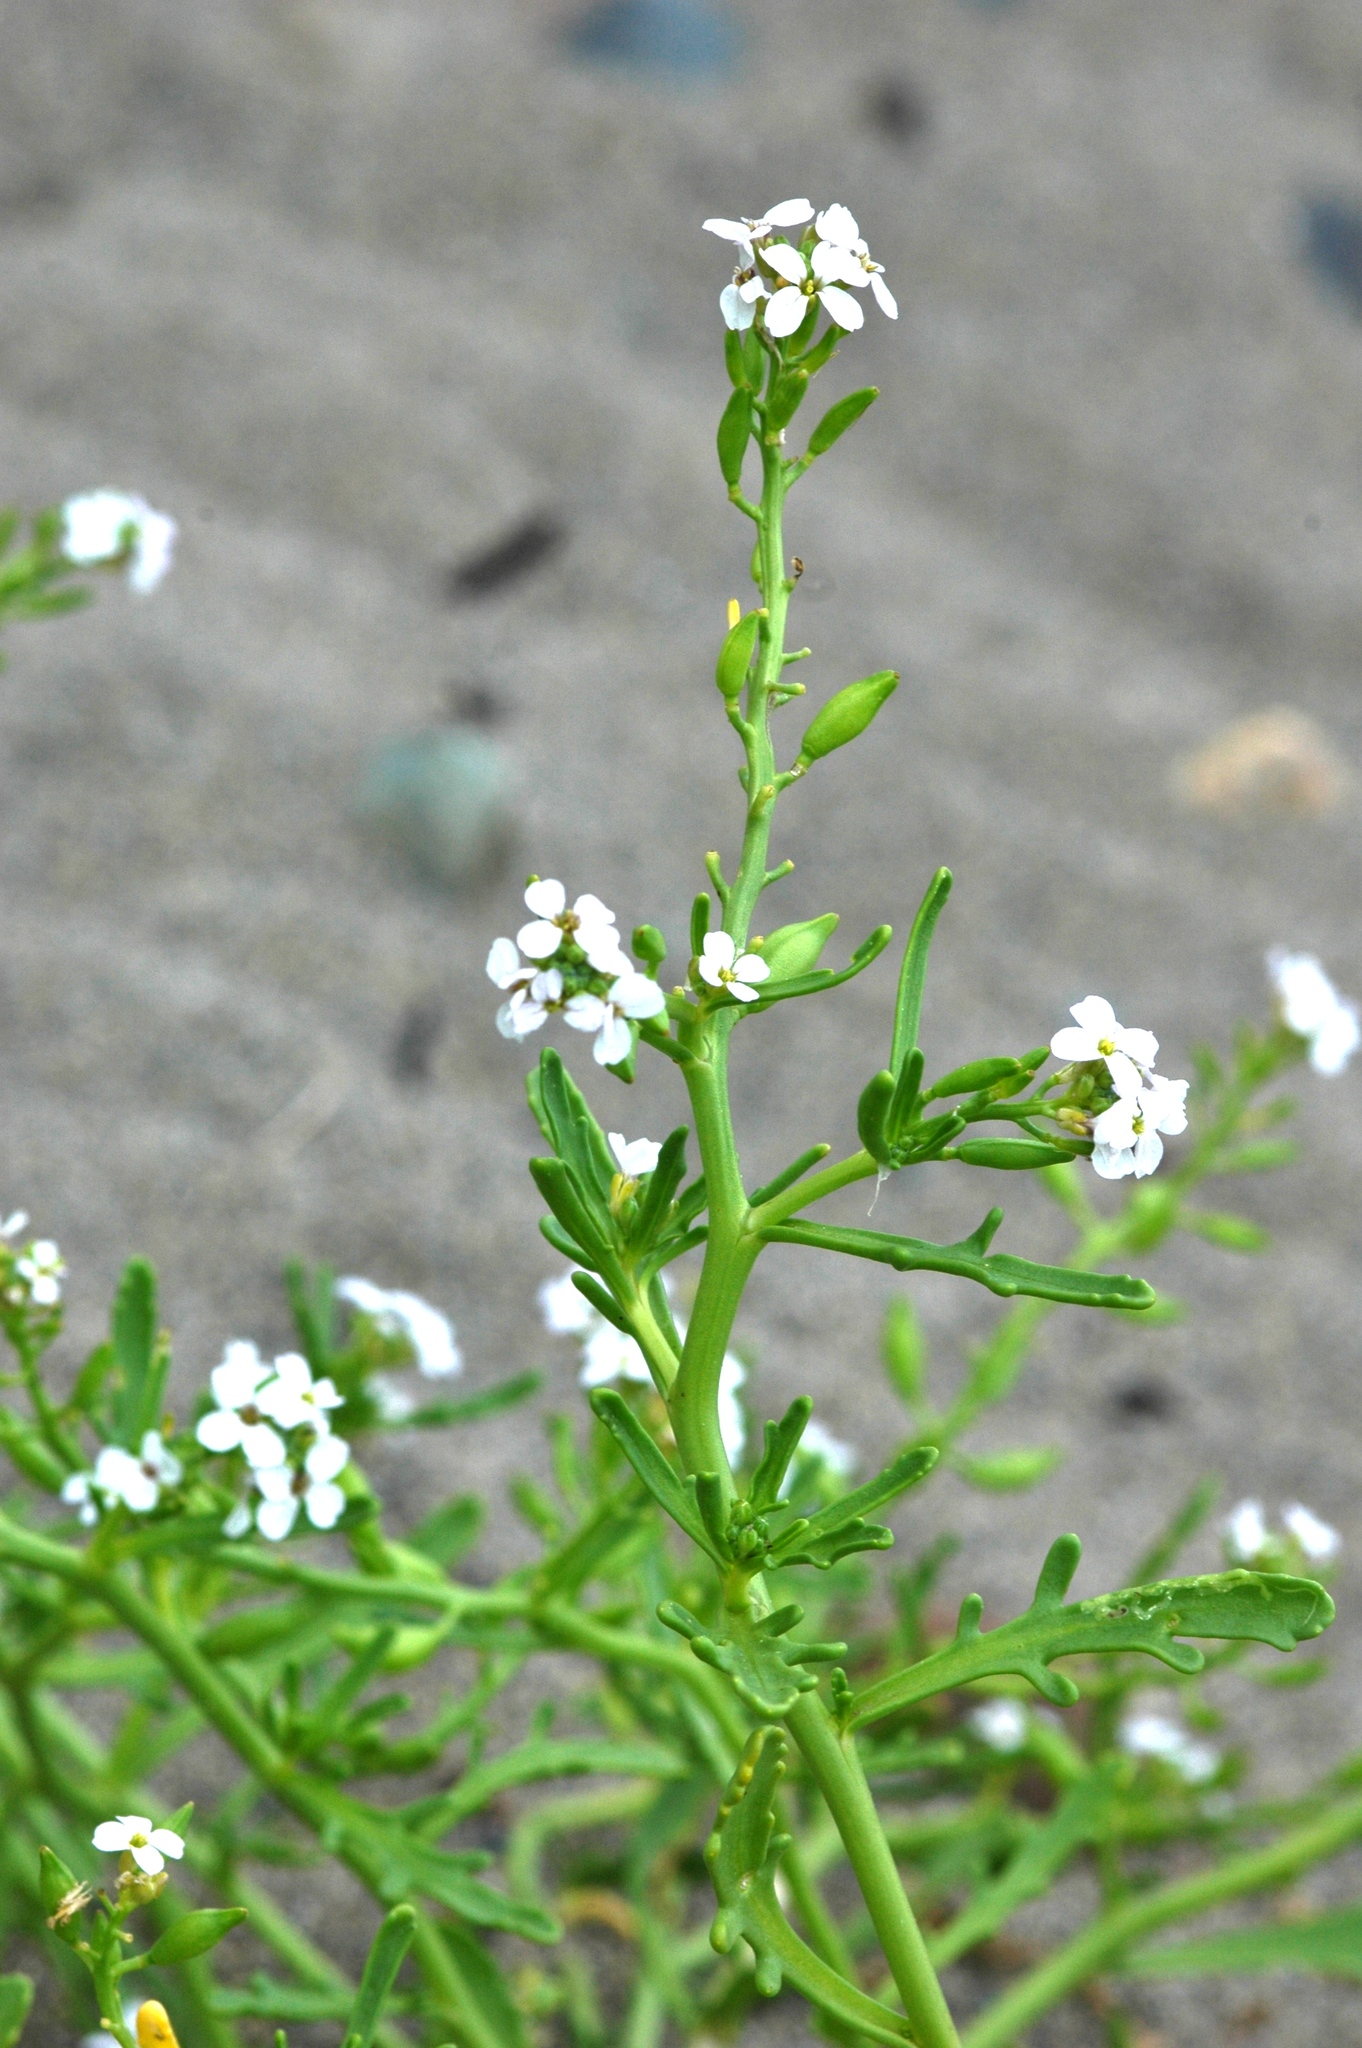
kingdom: Plantae
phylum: Tracheophyta
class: Magnoliopsida
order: Brassicales
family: Brassicaceae
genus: Cakile
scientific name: Cakile maritima
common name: Sea rocket
